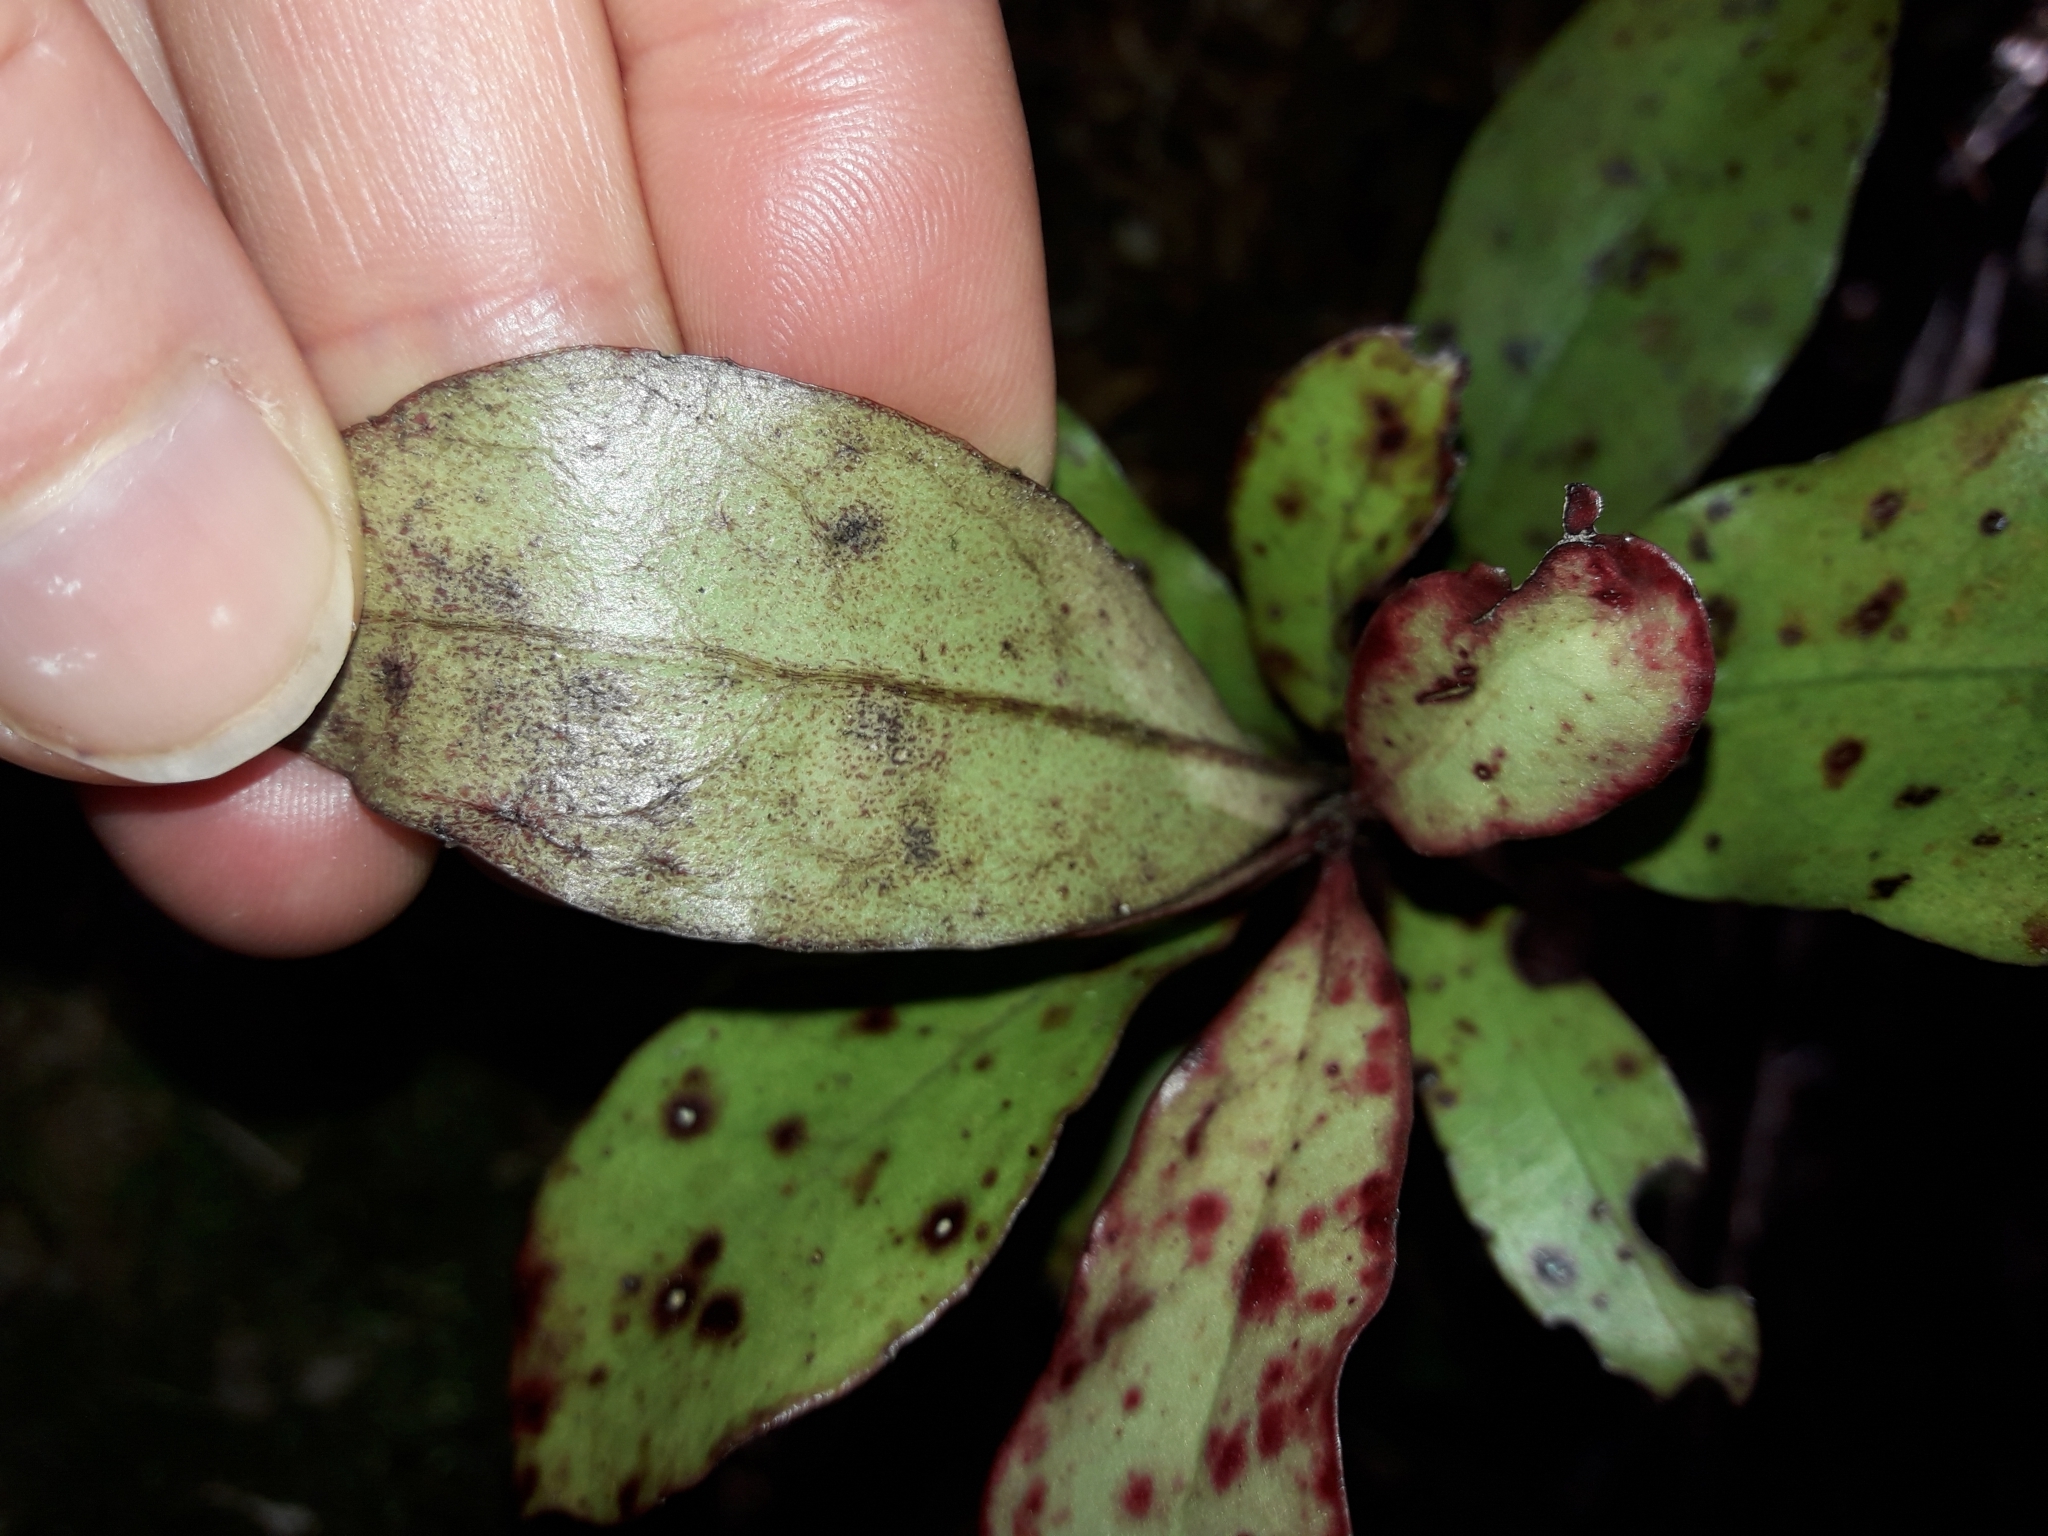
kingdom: Plantae
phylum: Tracheophyta
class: Magnoliopsida
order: Asterales
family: Alseuosmiaceae
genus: Alseuosmia
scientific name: Alseuosmia pusilla
